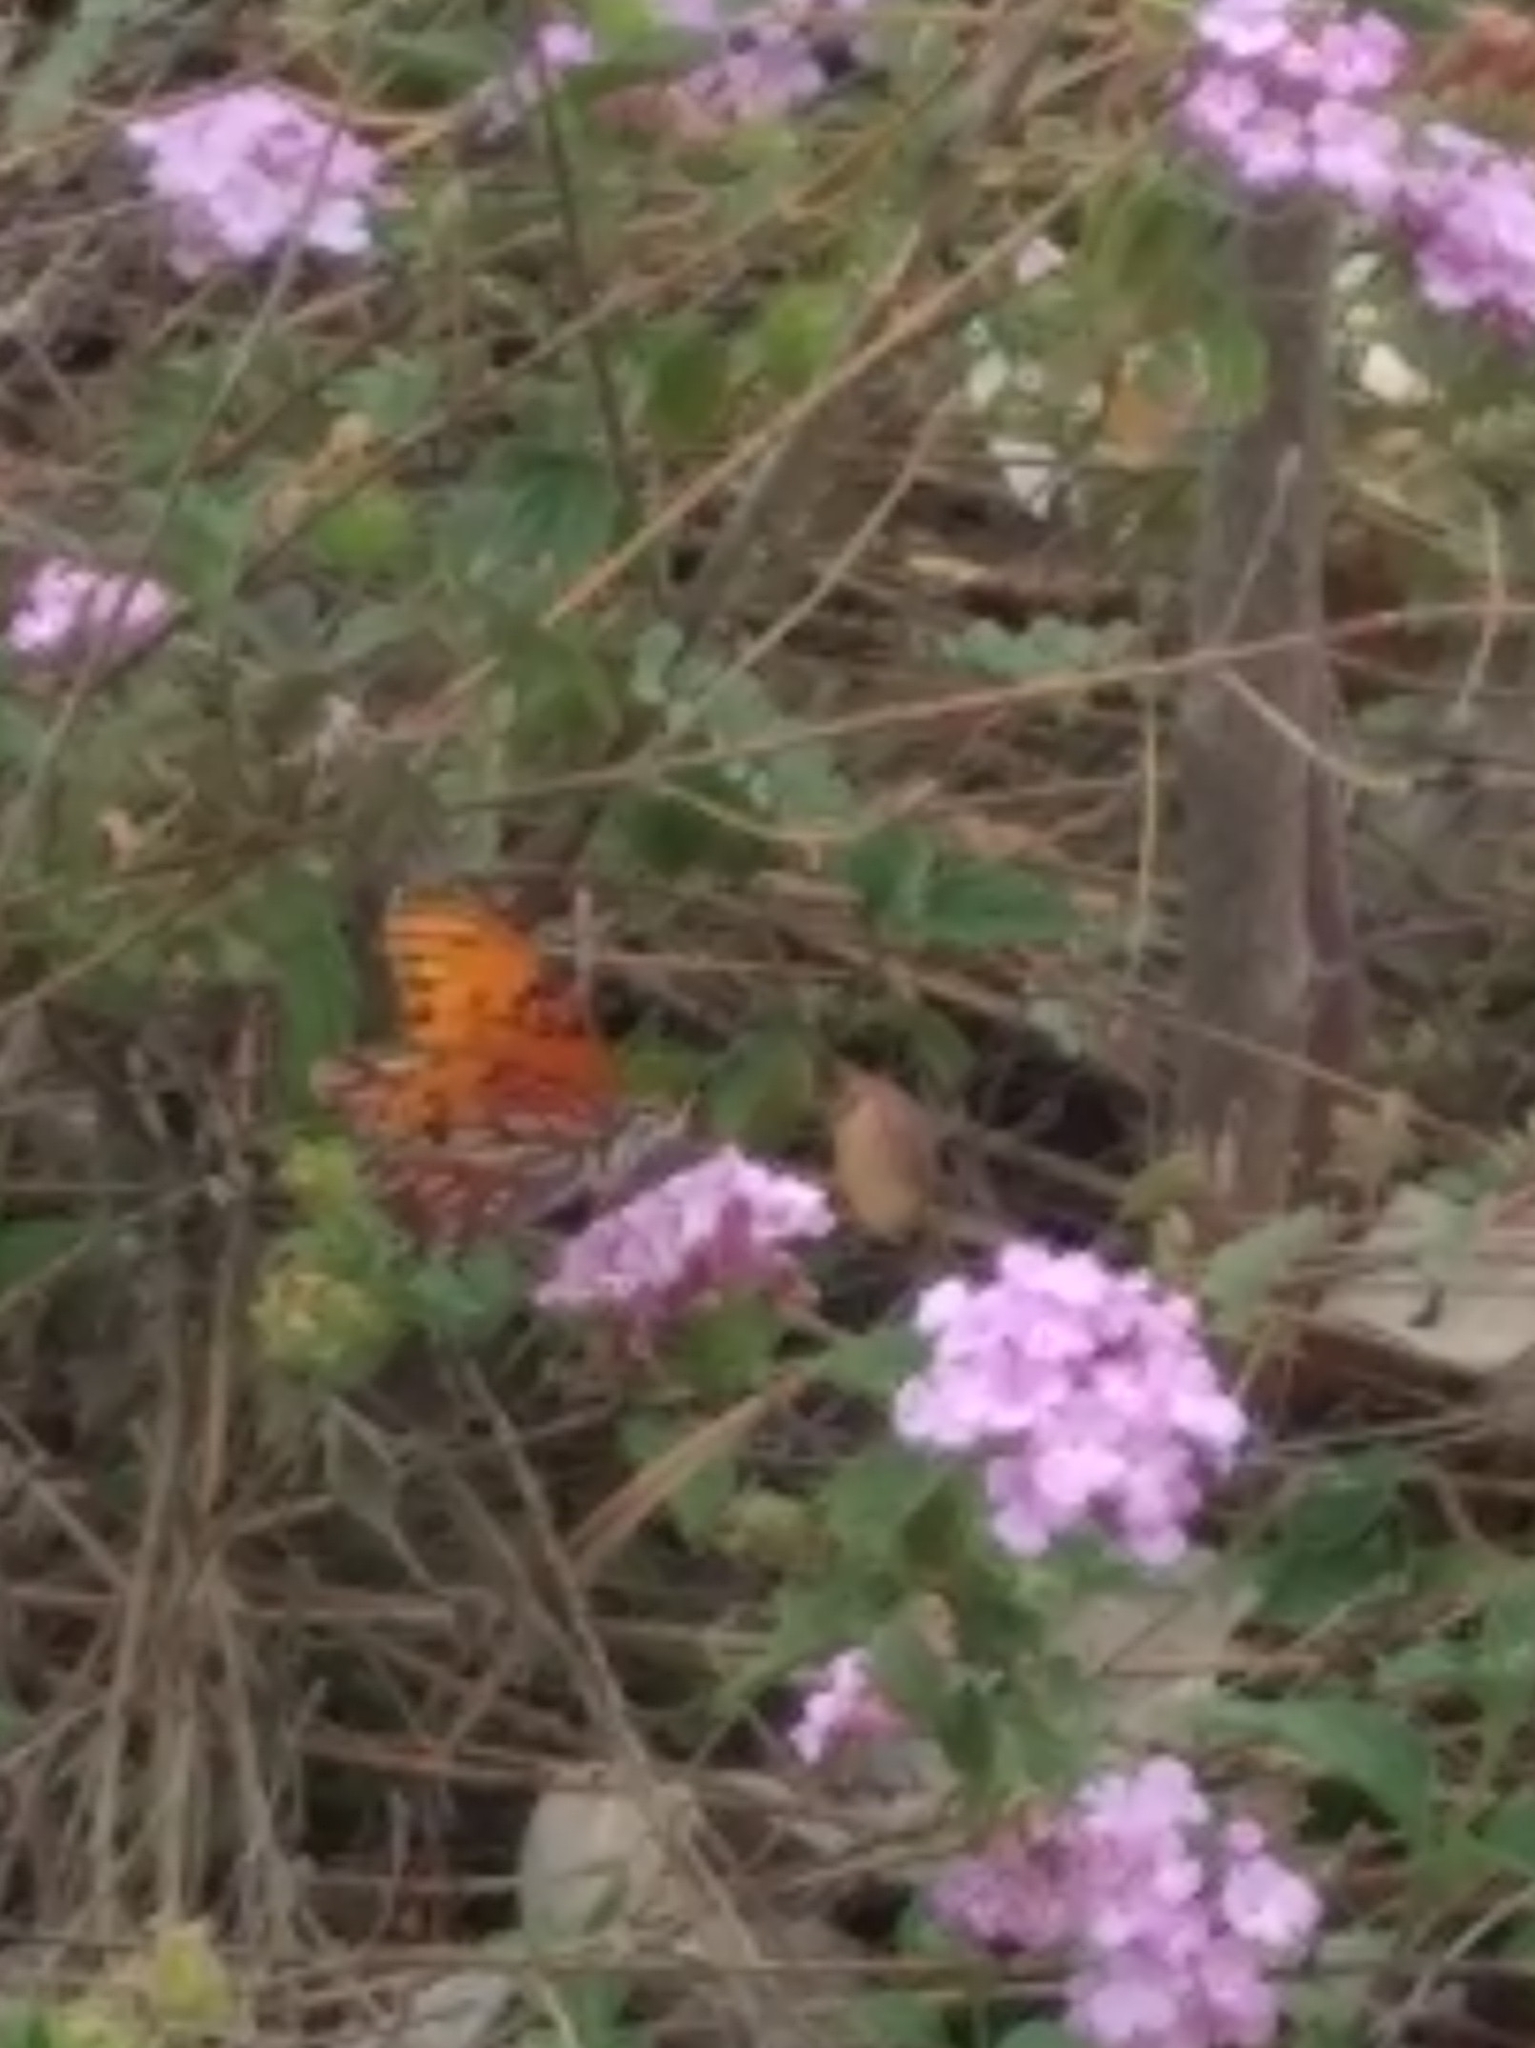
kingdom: Animalia
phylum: Arthropoda
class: Insecta
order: Lepidoptera
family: Nymphalidae
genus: Dione
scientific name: Dione vanillae
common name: Gulf fritillary
